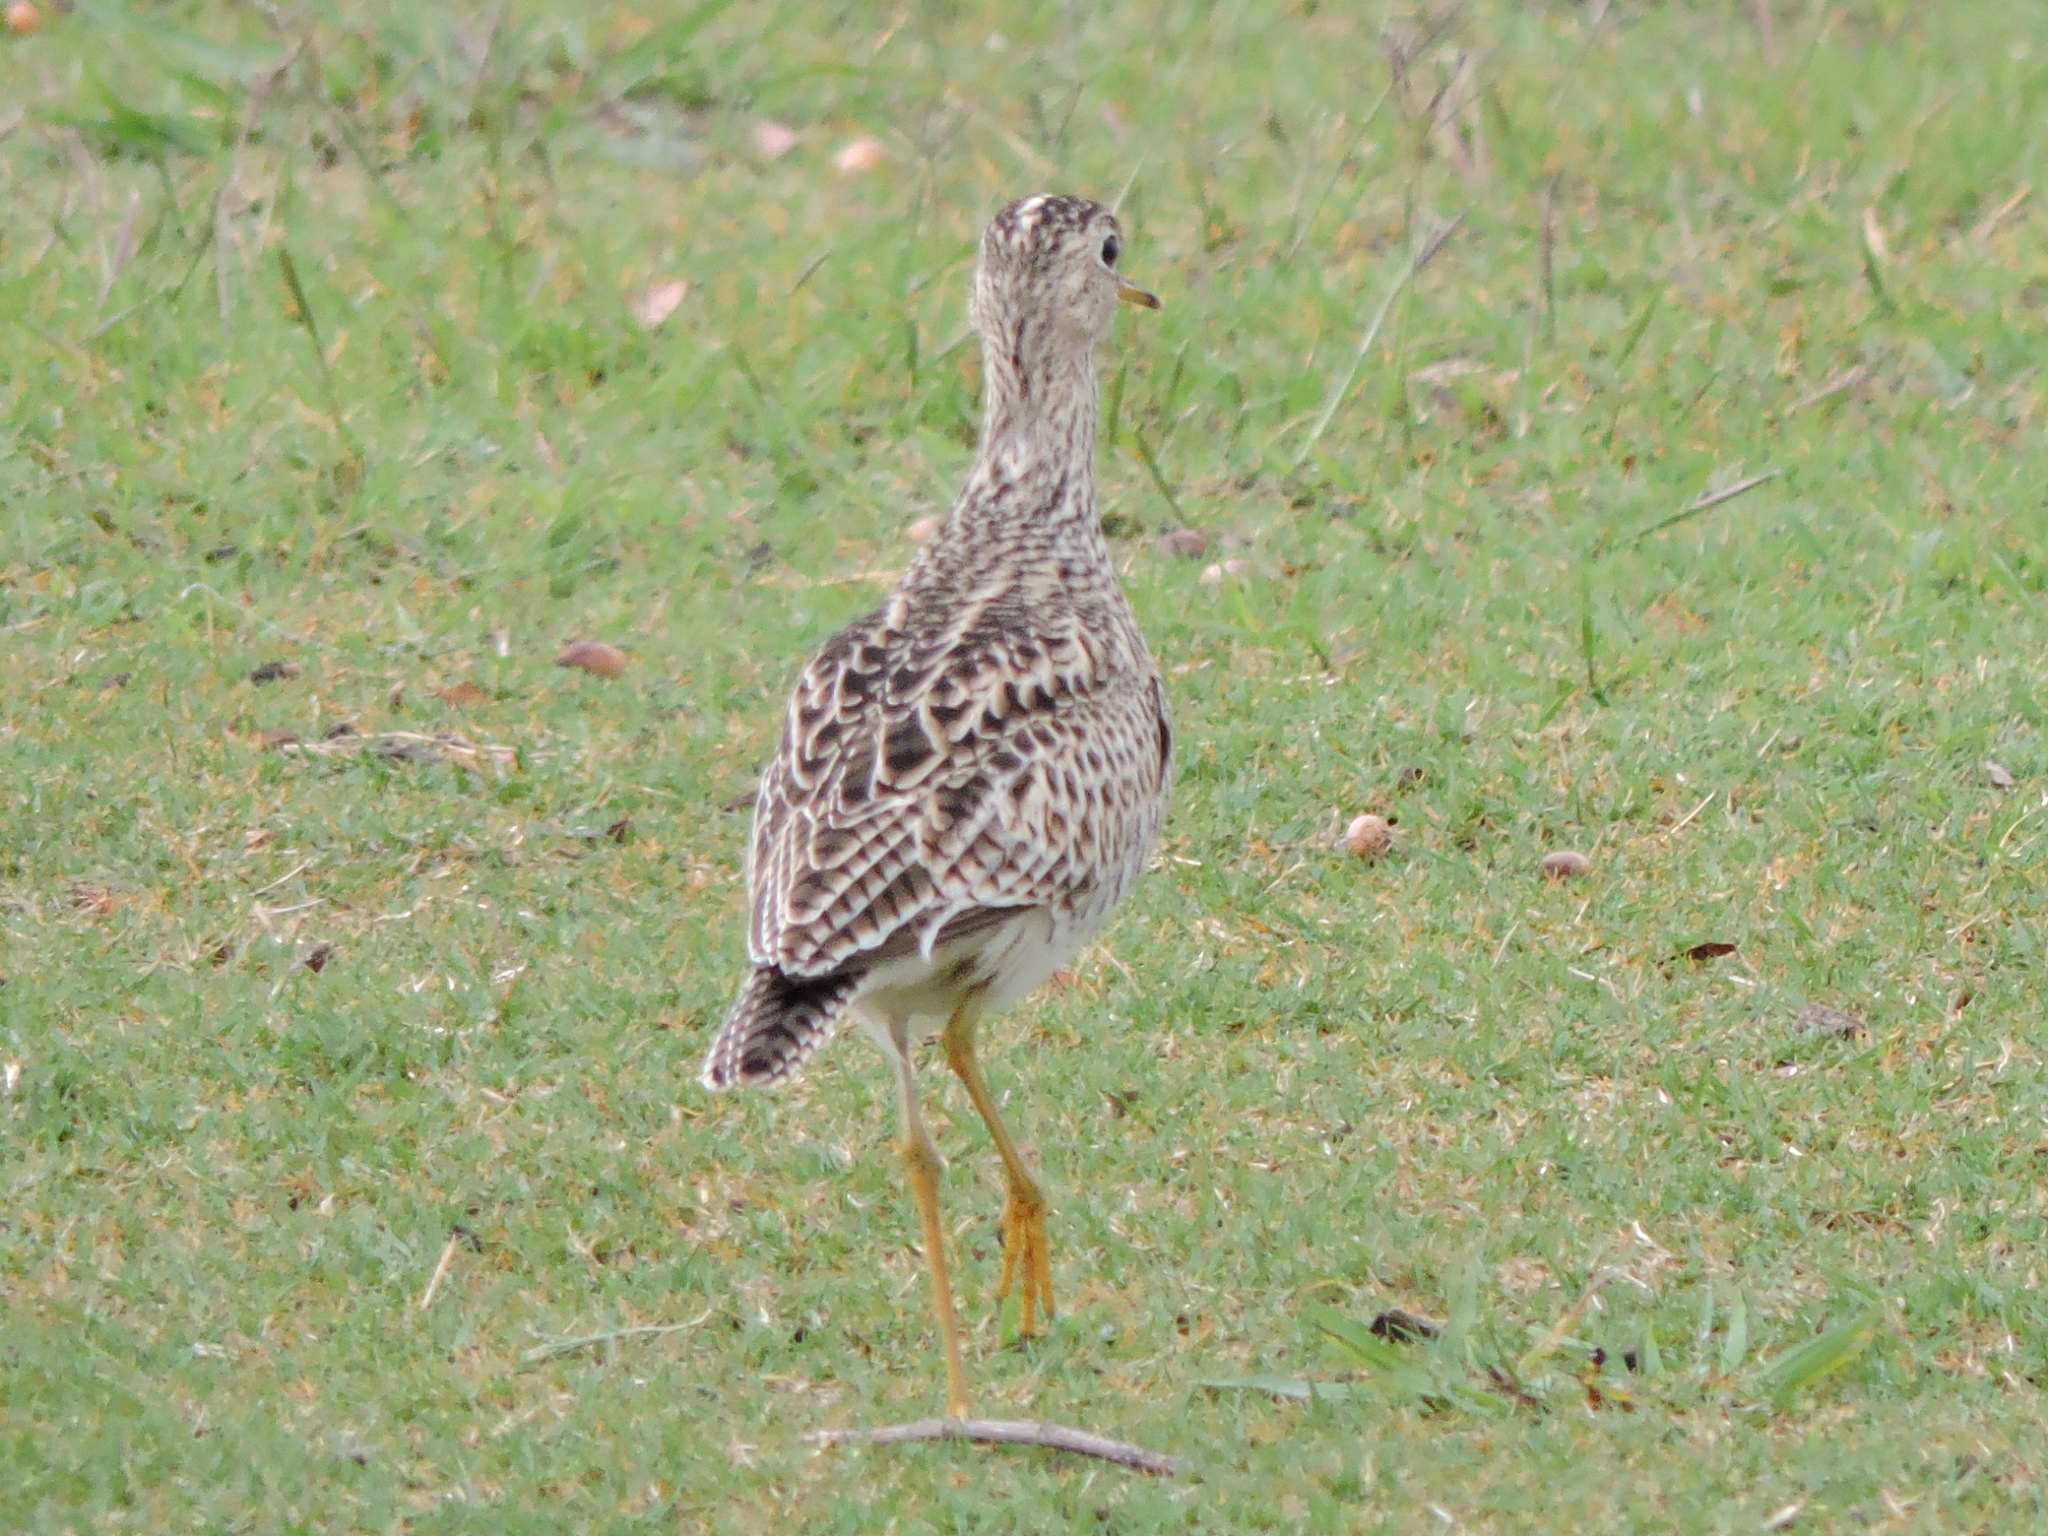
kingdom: Animalia
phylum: Chordata
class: Aves
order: Charadriiformes
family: Scolopacidae
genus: Bartramia
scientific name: Bartramia longicauda
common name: Upland sandpiper
